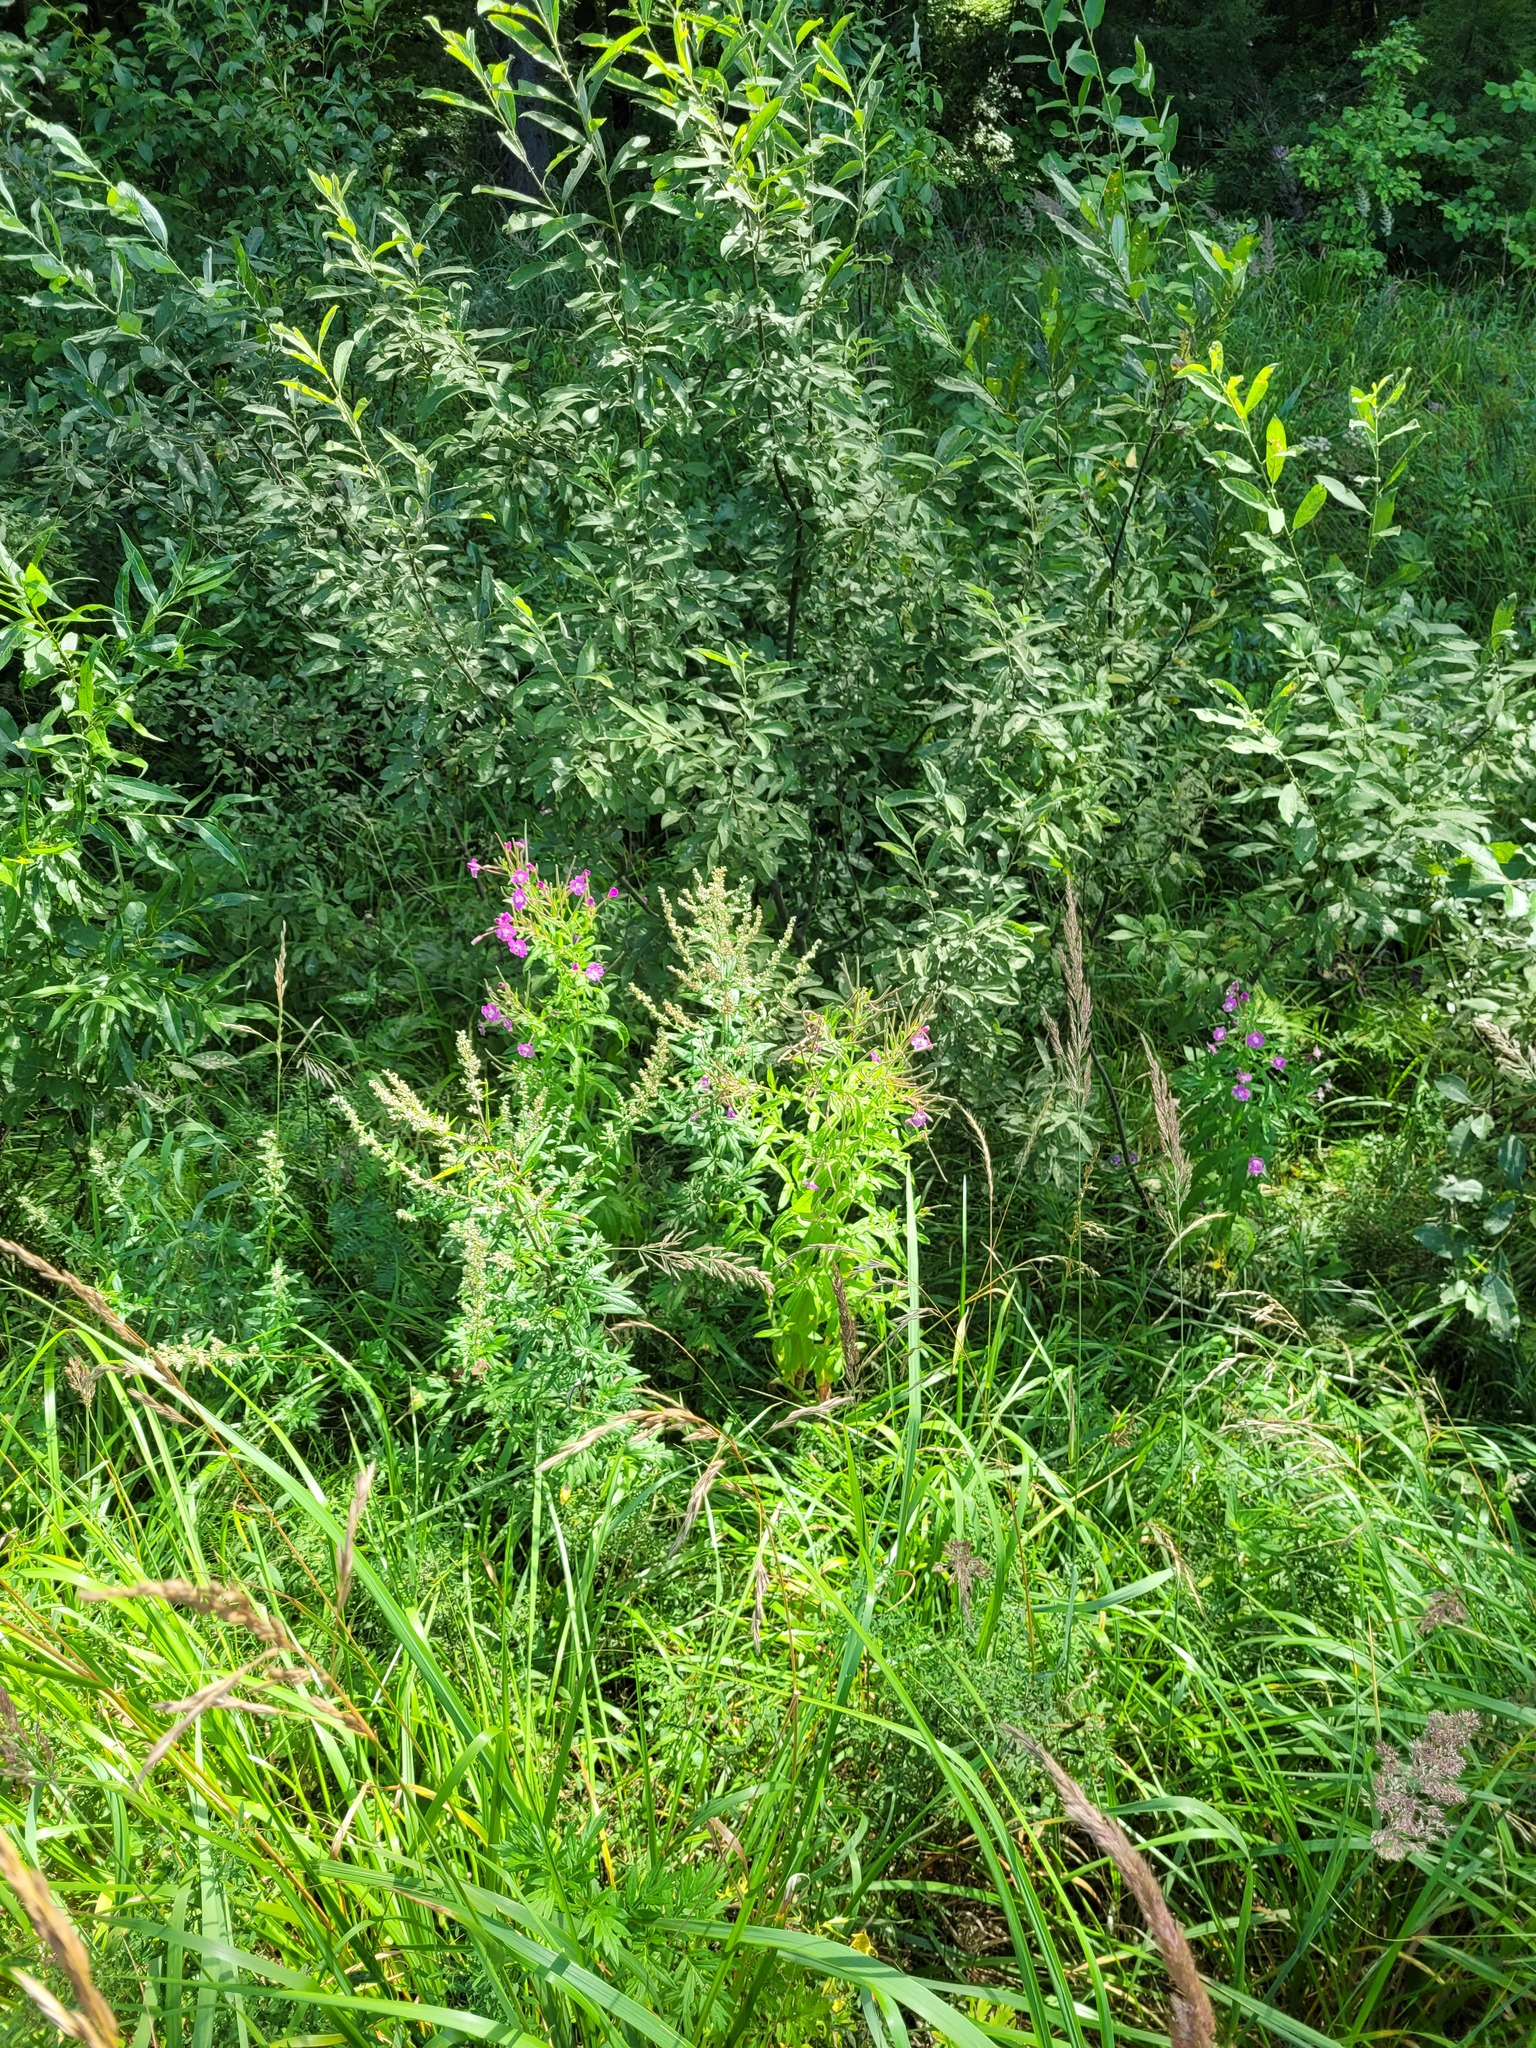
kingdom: Plantae
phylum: Tracheophyta
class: Magnoliopsida
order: Myrtales
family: Onagraceae
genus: Epilobium
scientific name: Epilobium hirsutum
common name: Great willowherb
